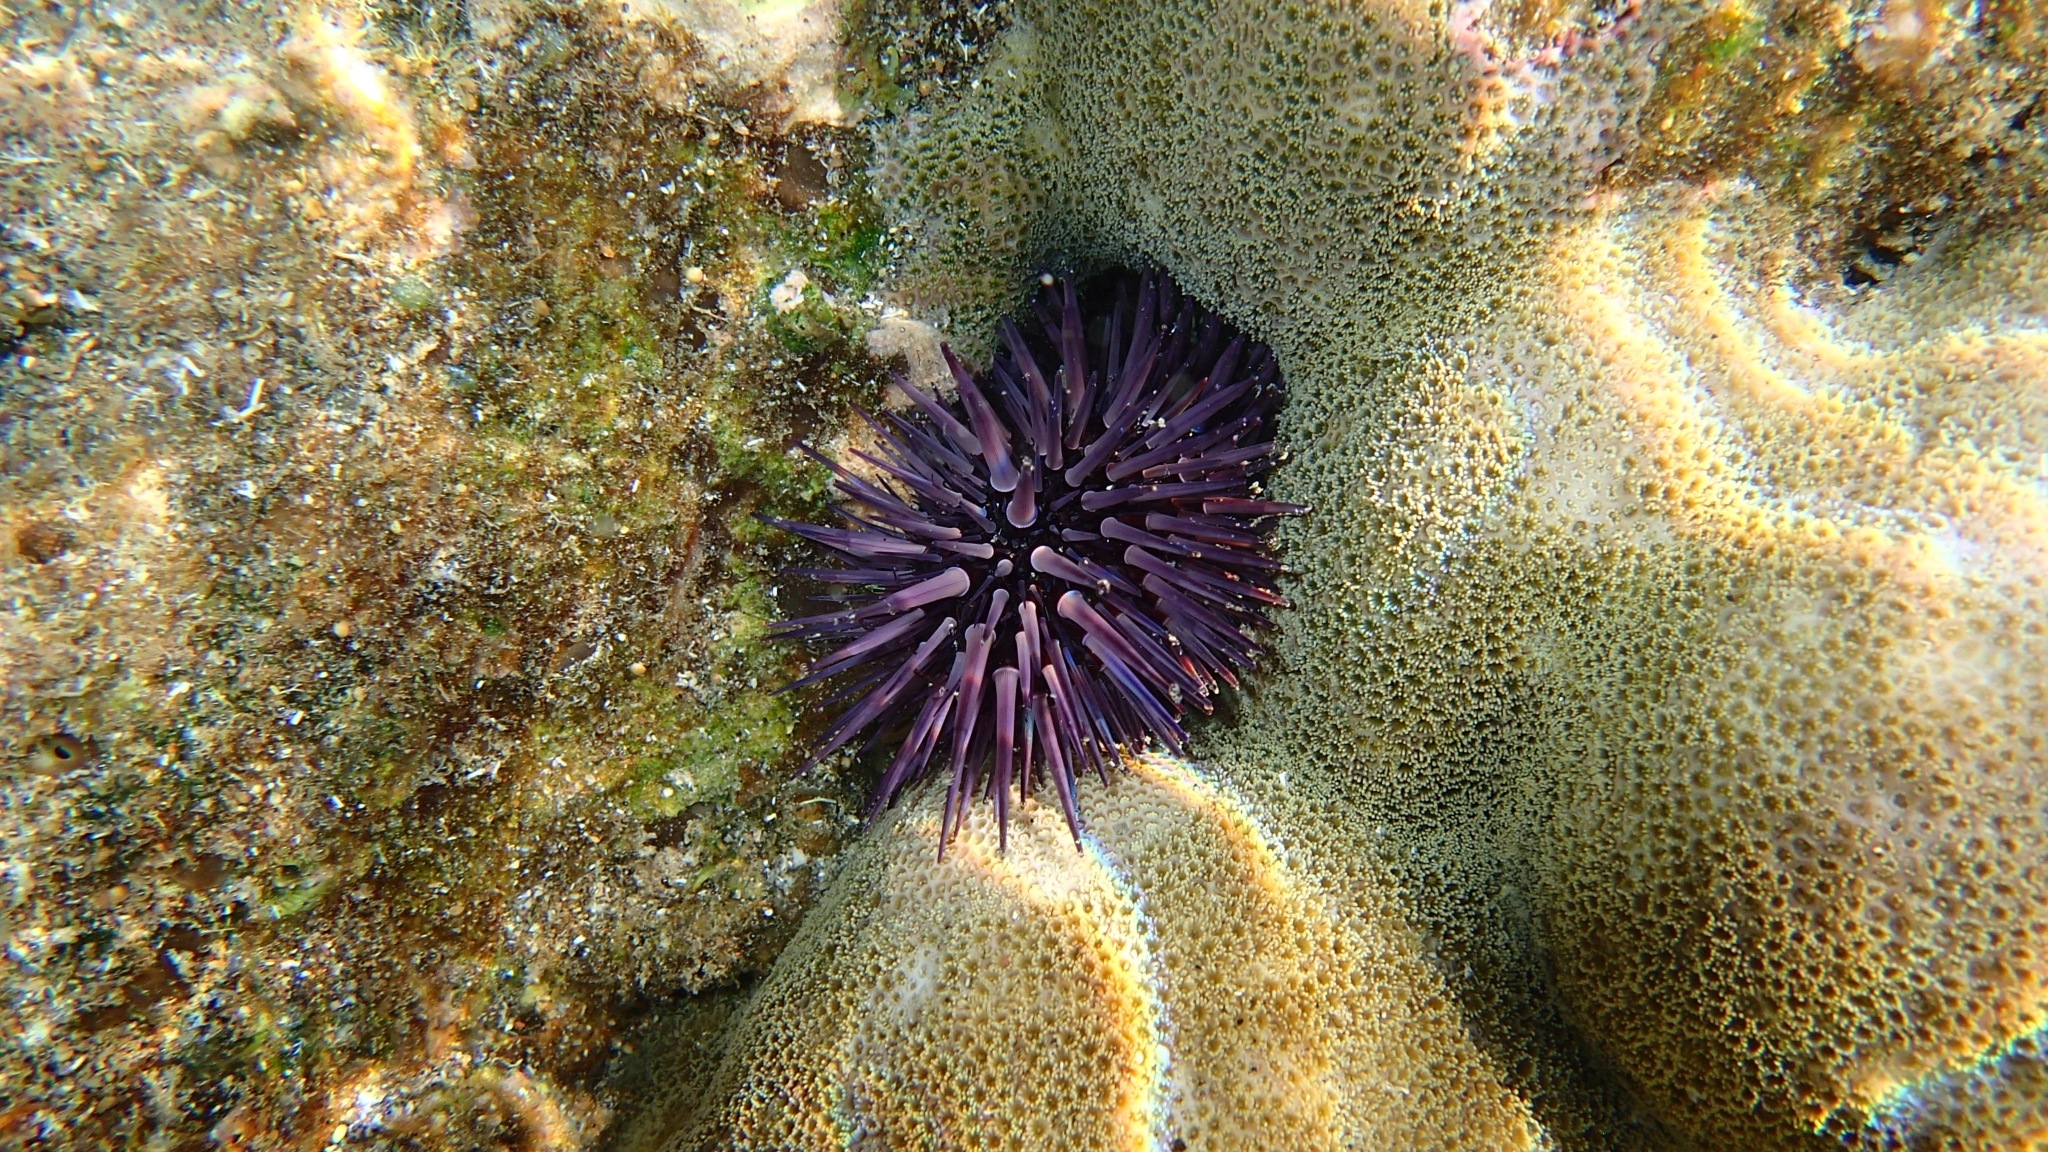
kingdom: Animalia
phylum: Echinodermata
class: Echinoidea
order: Camarodonta
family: Echinometridae
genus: Echinometra
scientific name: Echinometra mathaei
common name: Rock-boring urchin
